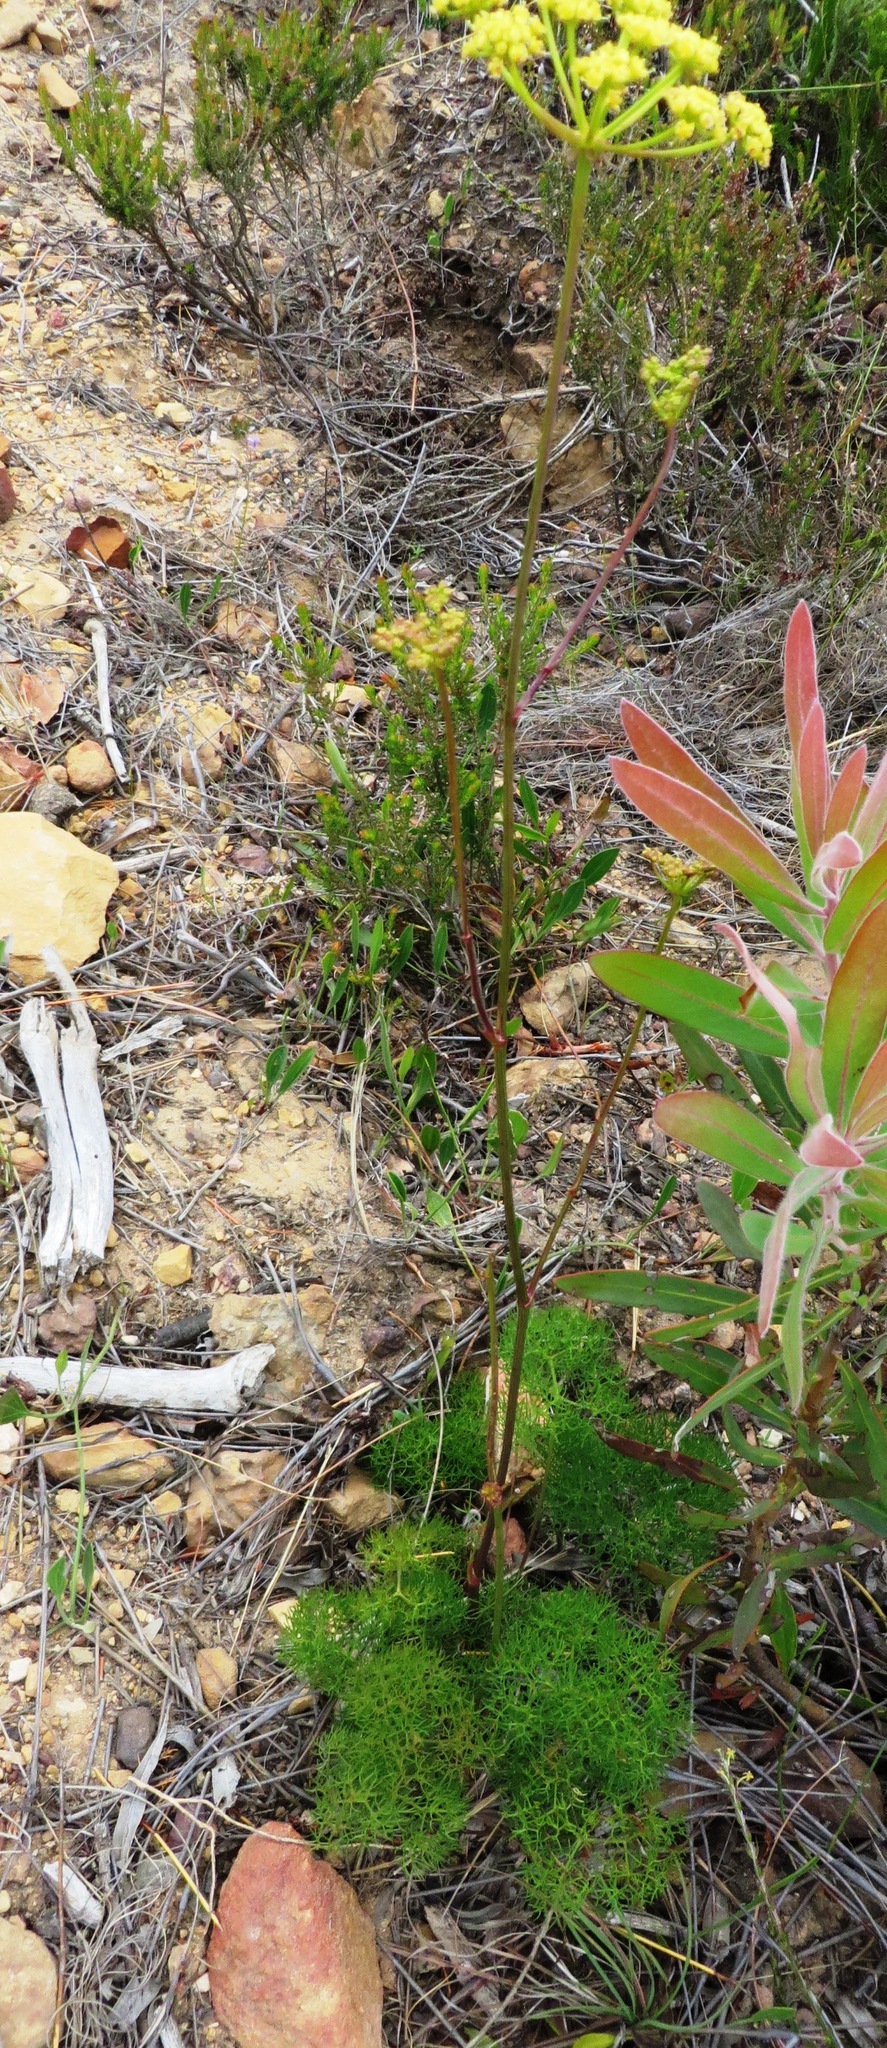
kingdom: Plantae
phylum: Tracheophyta
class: Magnoliopsida
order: Apiales
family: Apiaceae
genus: Nanobubon
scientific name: Nanobubon capillaceum
